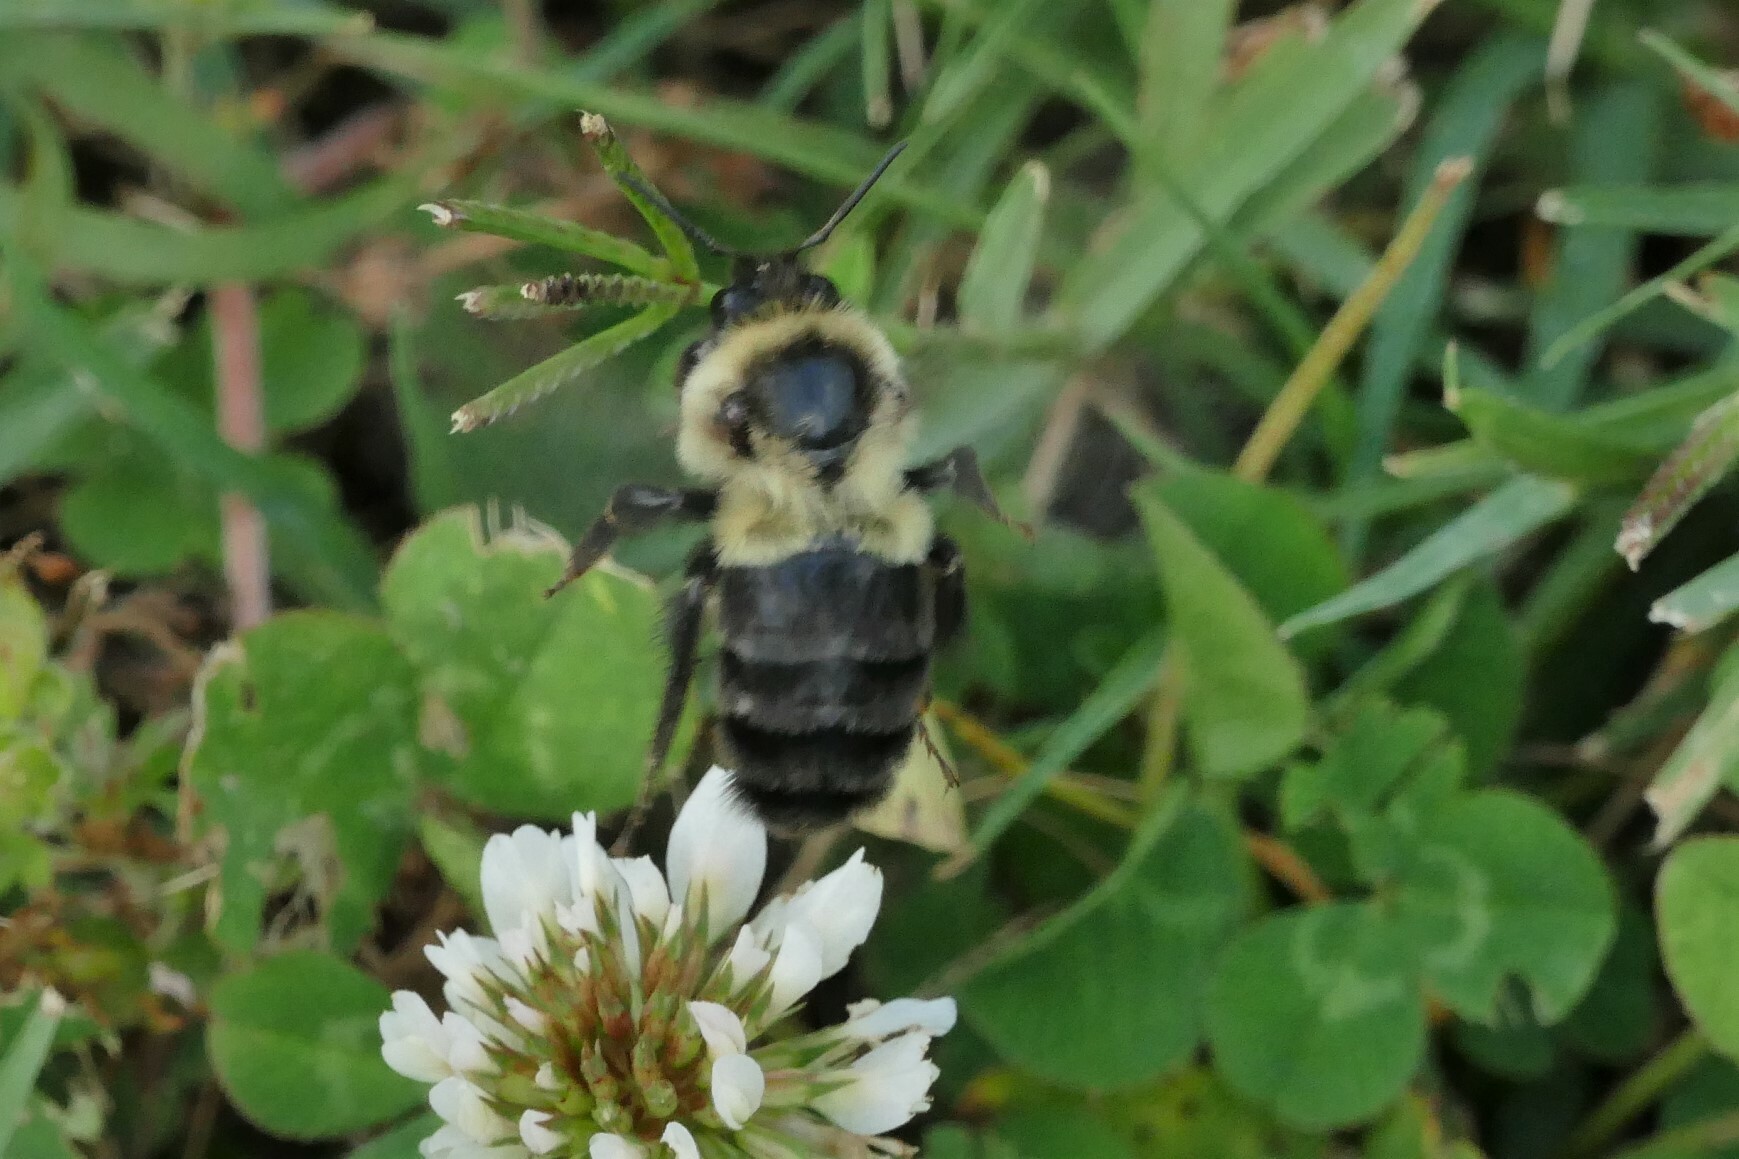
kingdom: Animalia
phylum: Arthropoda
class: Insecta
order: Hymenoptera
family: Apidae
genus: Bombus
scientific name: Bombus impatiens
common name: Common eastern bumble bee
